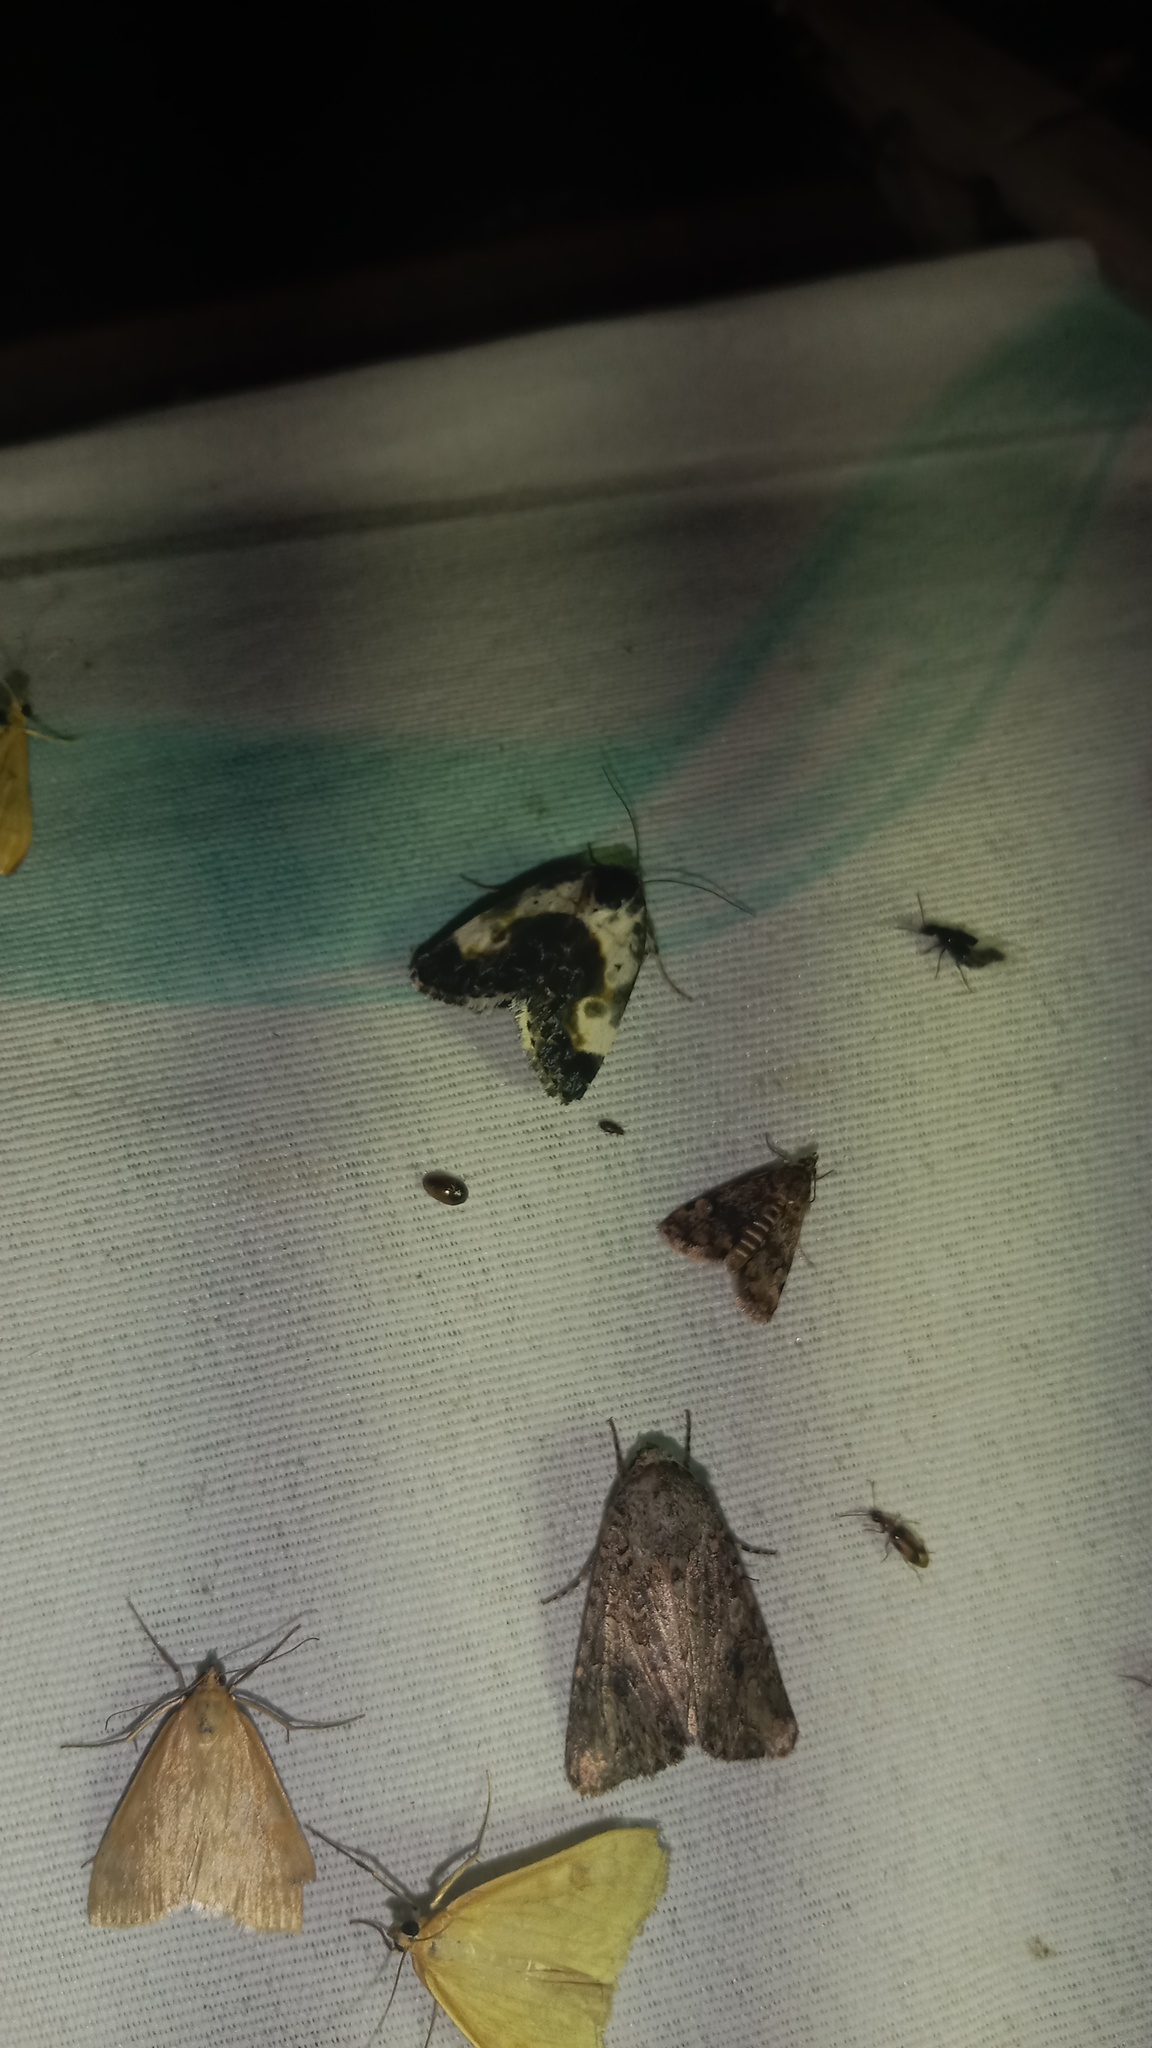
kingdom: Animalia
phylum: Arthropoda
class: Insecta
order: Lepidoptera
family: Noctuidae
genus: Acontia
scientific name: Acontia melanura
